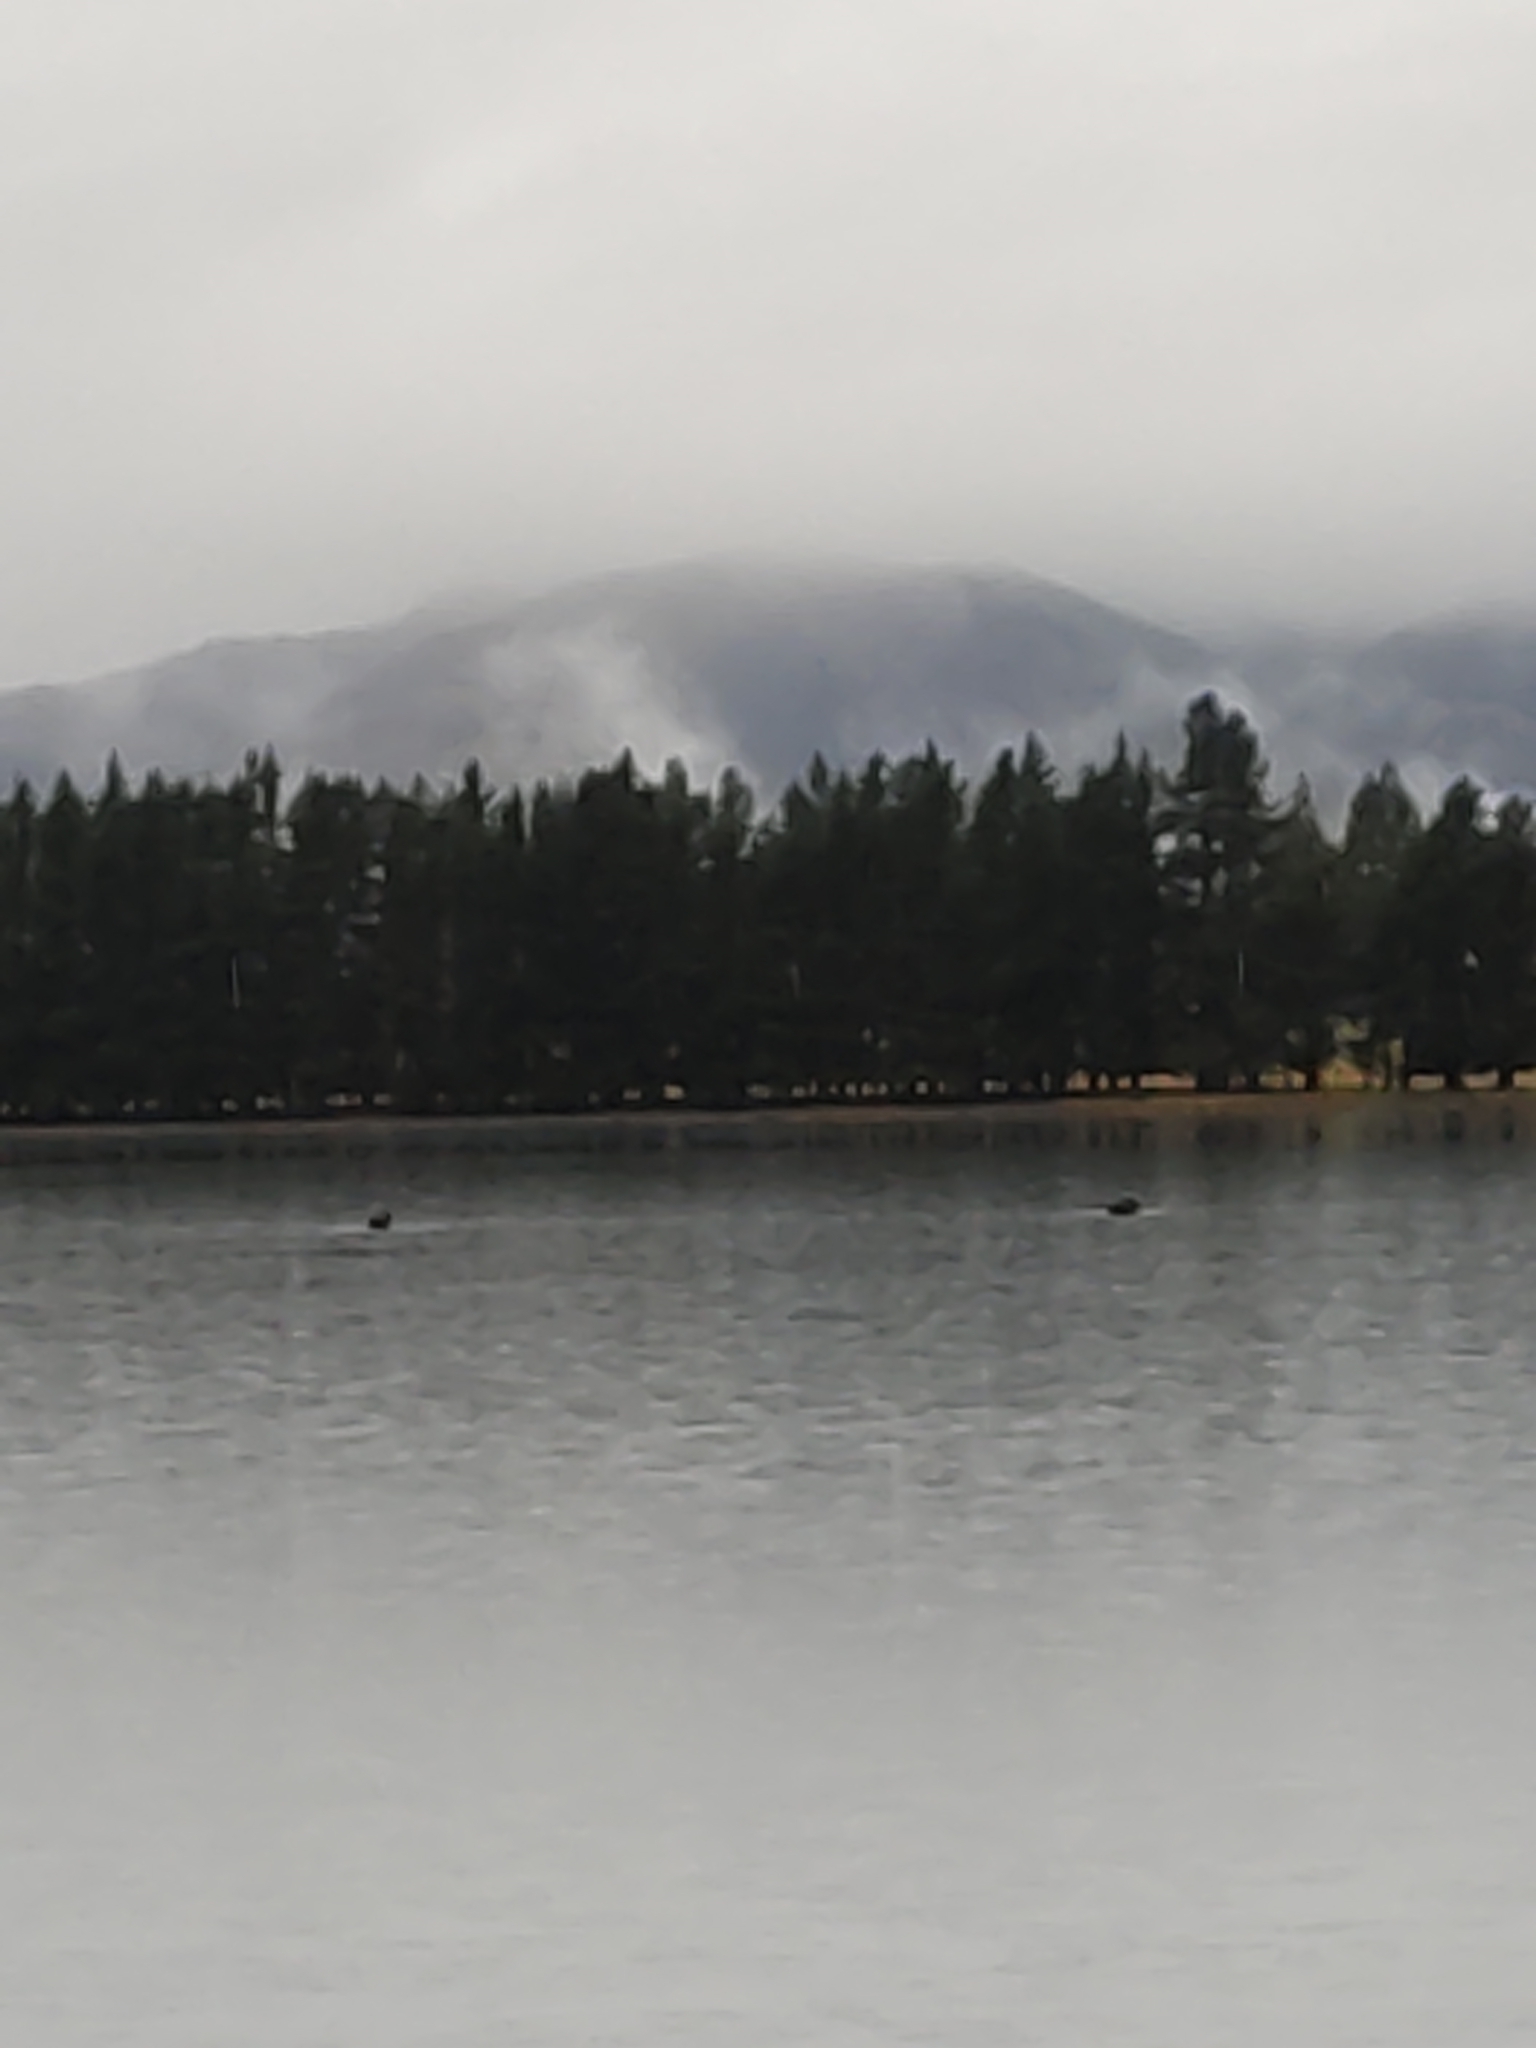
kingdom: Animalia
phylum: Chordata
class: Aves
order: Anseriformes
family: Anatidae
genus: Cygnus
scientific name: Cygnus atratus
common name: Black swan
